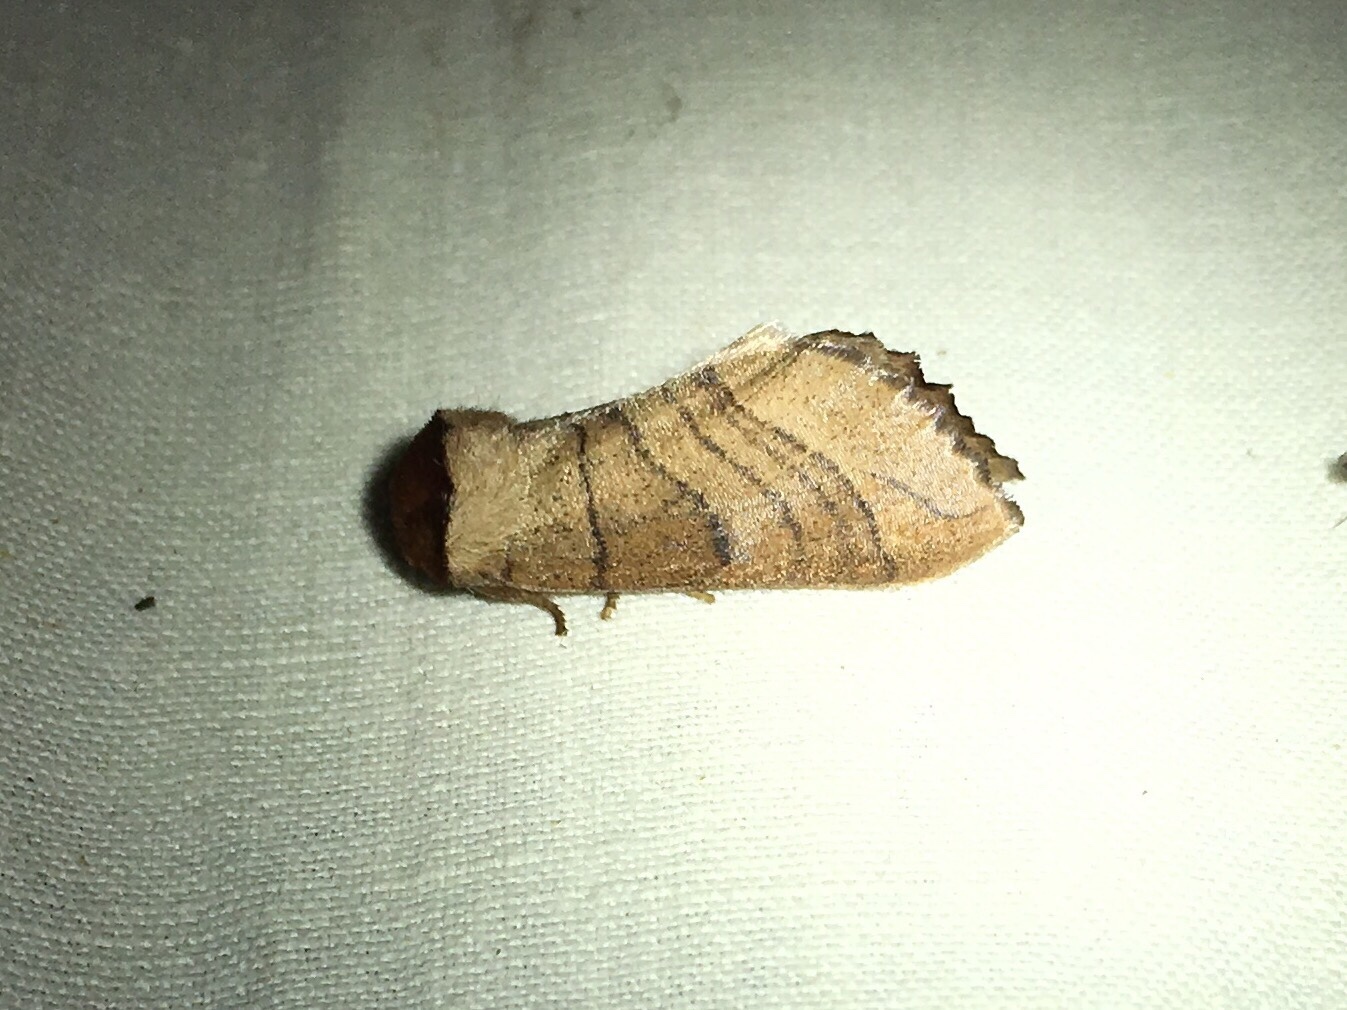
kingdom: Animalia
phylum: Arthropoda
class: Insecta
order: Lepidoptera
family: Notodontidae
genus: Datana
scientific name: Datana angusii
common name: Angus's datana
